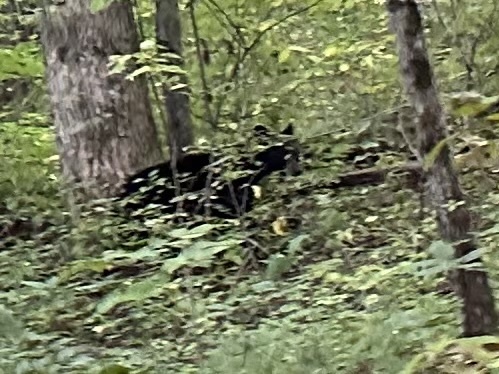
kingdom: Animalia
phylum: Chordata
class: Mammalia
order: Carnivora
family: Ursidae
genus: Ursus
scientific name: Ursus americanus
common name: American black bear
